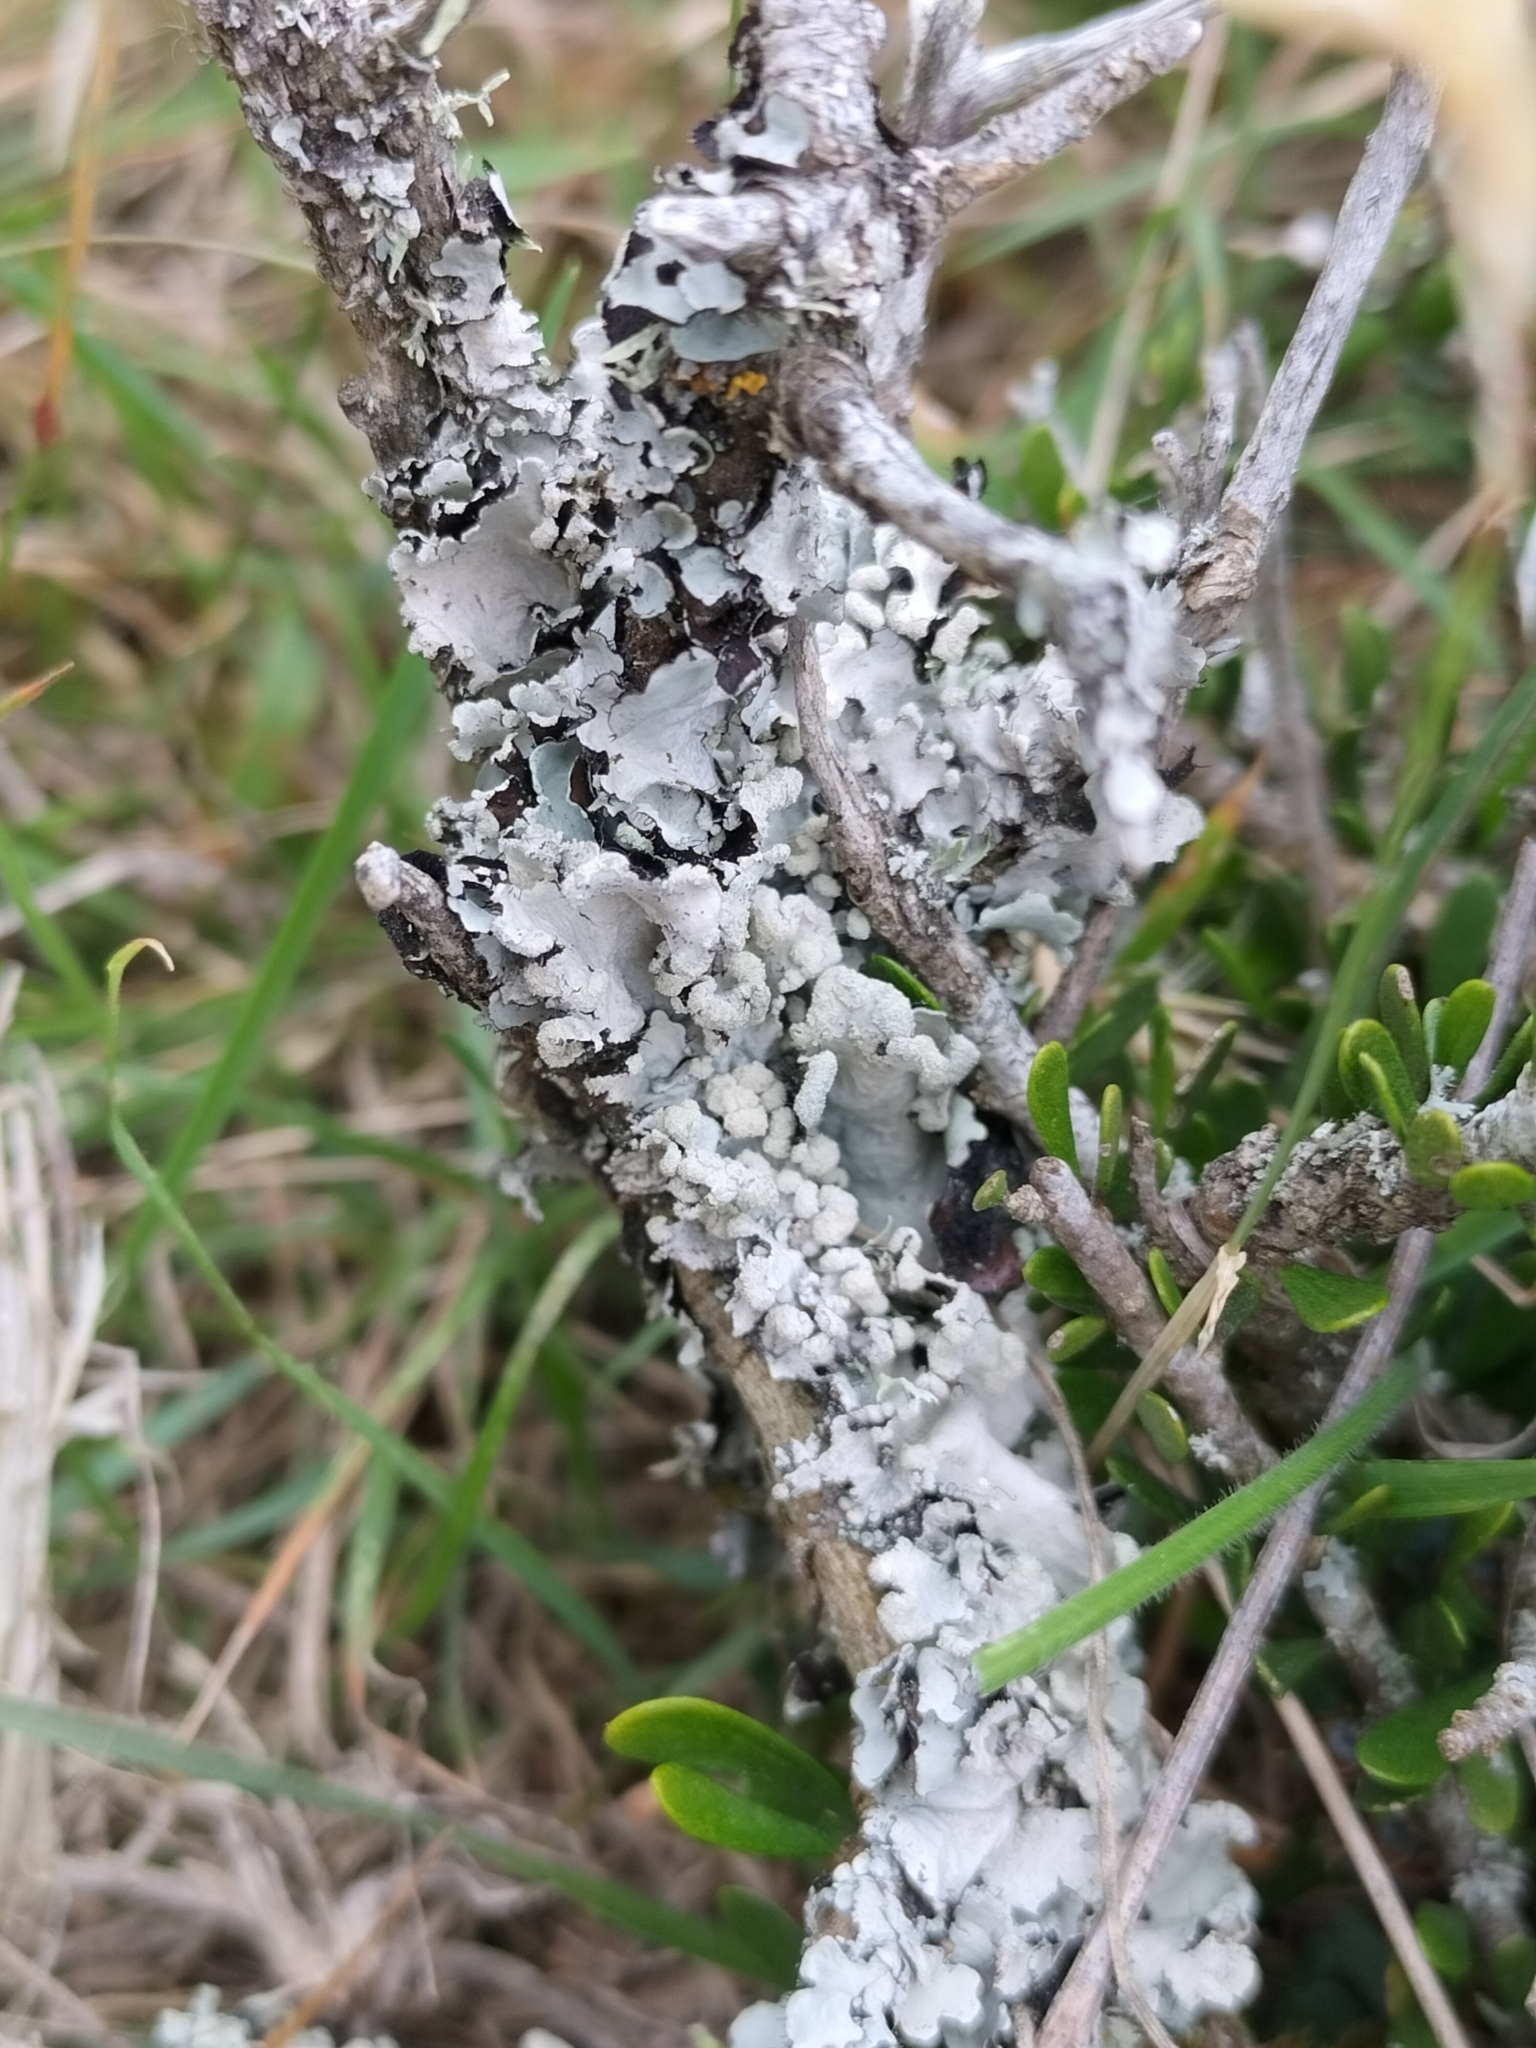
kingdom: Fungi
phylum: Ascomycota
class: Lecanoromycetes
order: Lecanorales
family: Parmeliaceae
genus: Parmotrema
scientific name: Parmotrema perlatum
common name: Black stone flower
